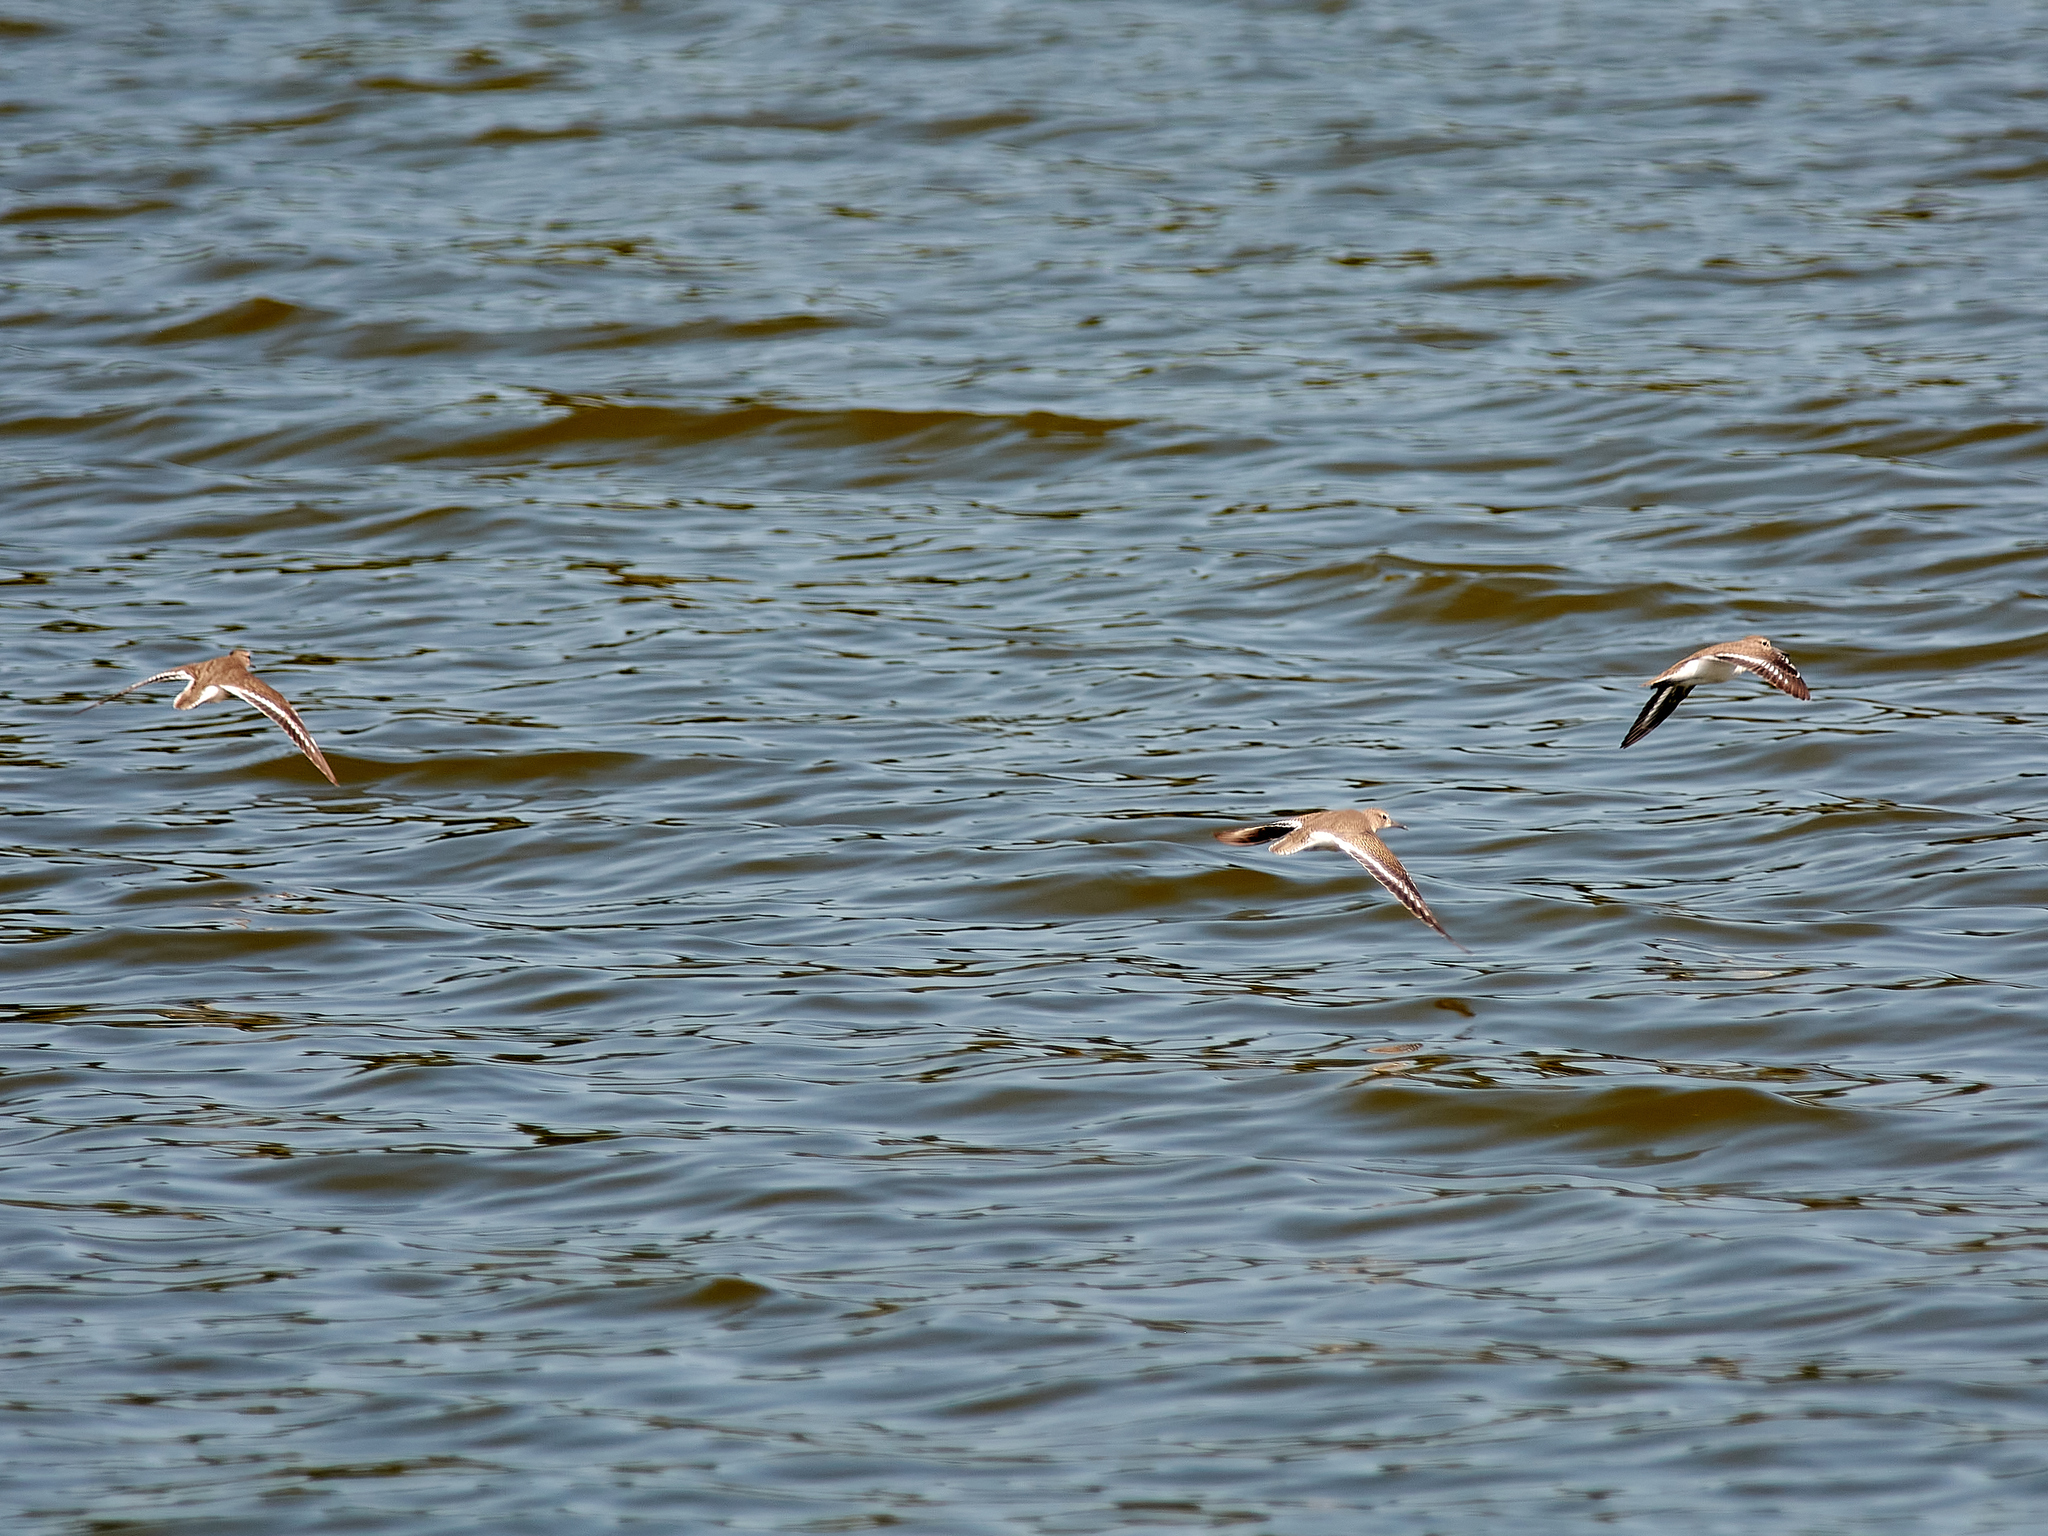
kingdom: Animalia
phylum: Chordata
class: Aves
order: Charadriiformes
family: Scolopacidae
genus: Actitis
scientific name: Actitis hypoleucos
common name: Common sandpiper
